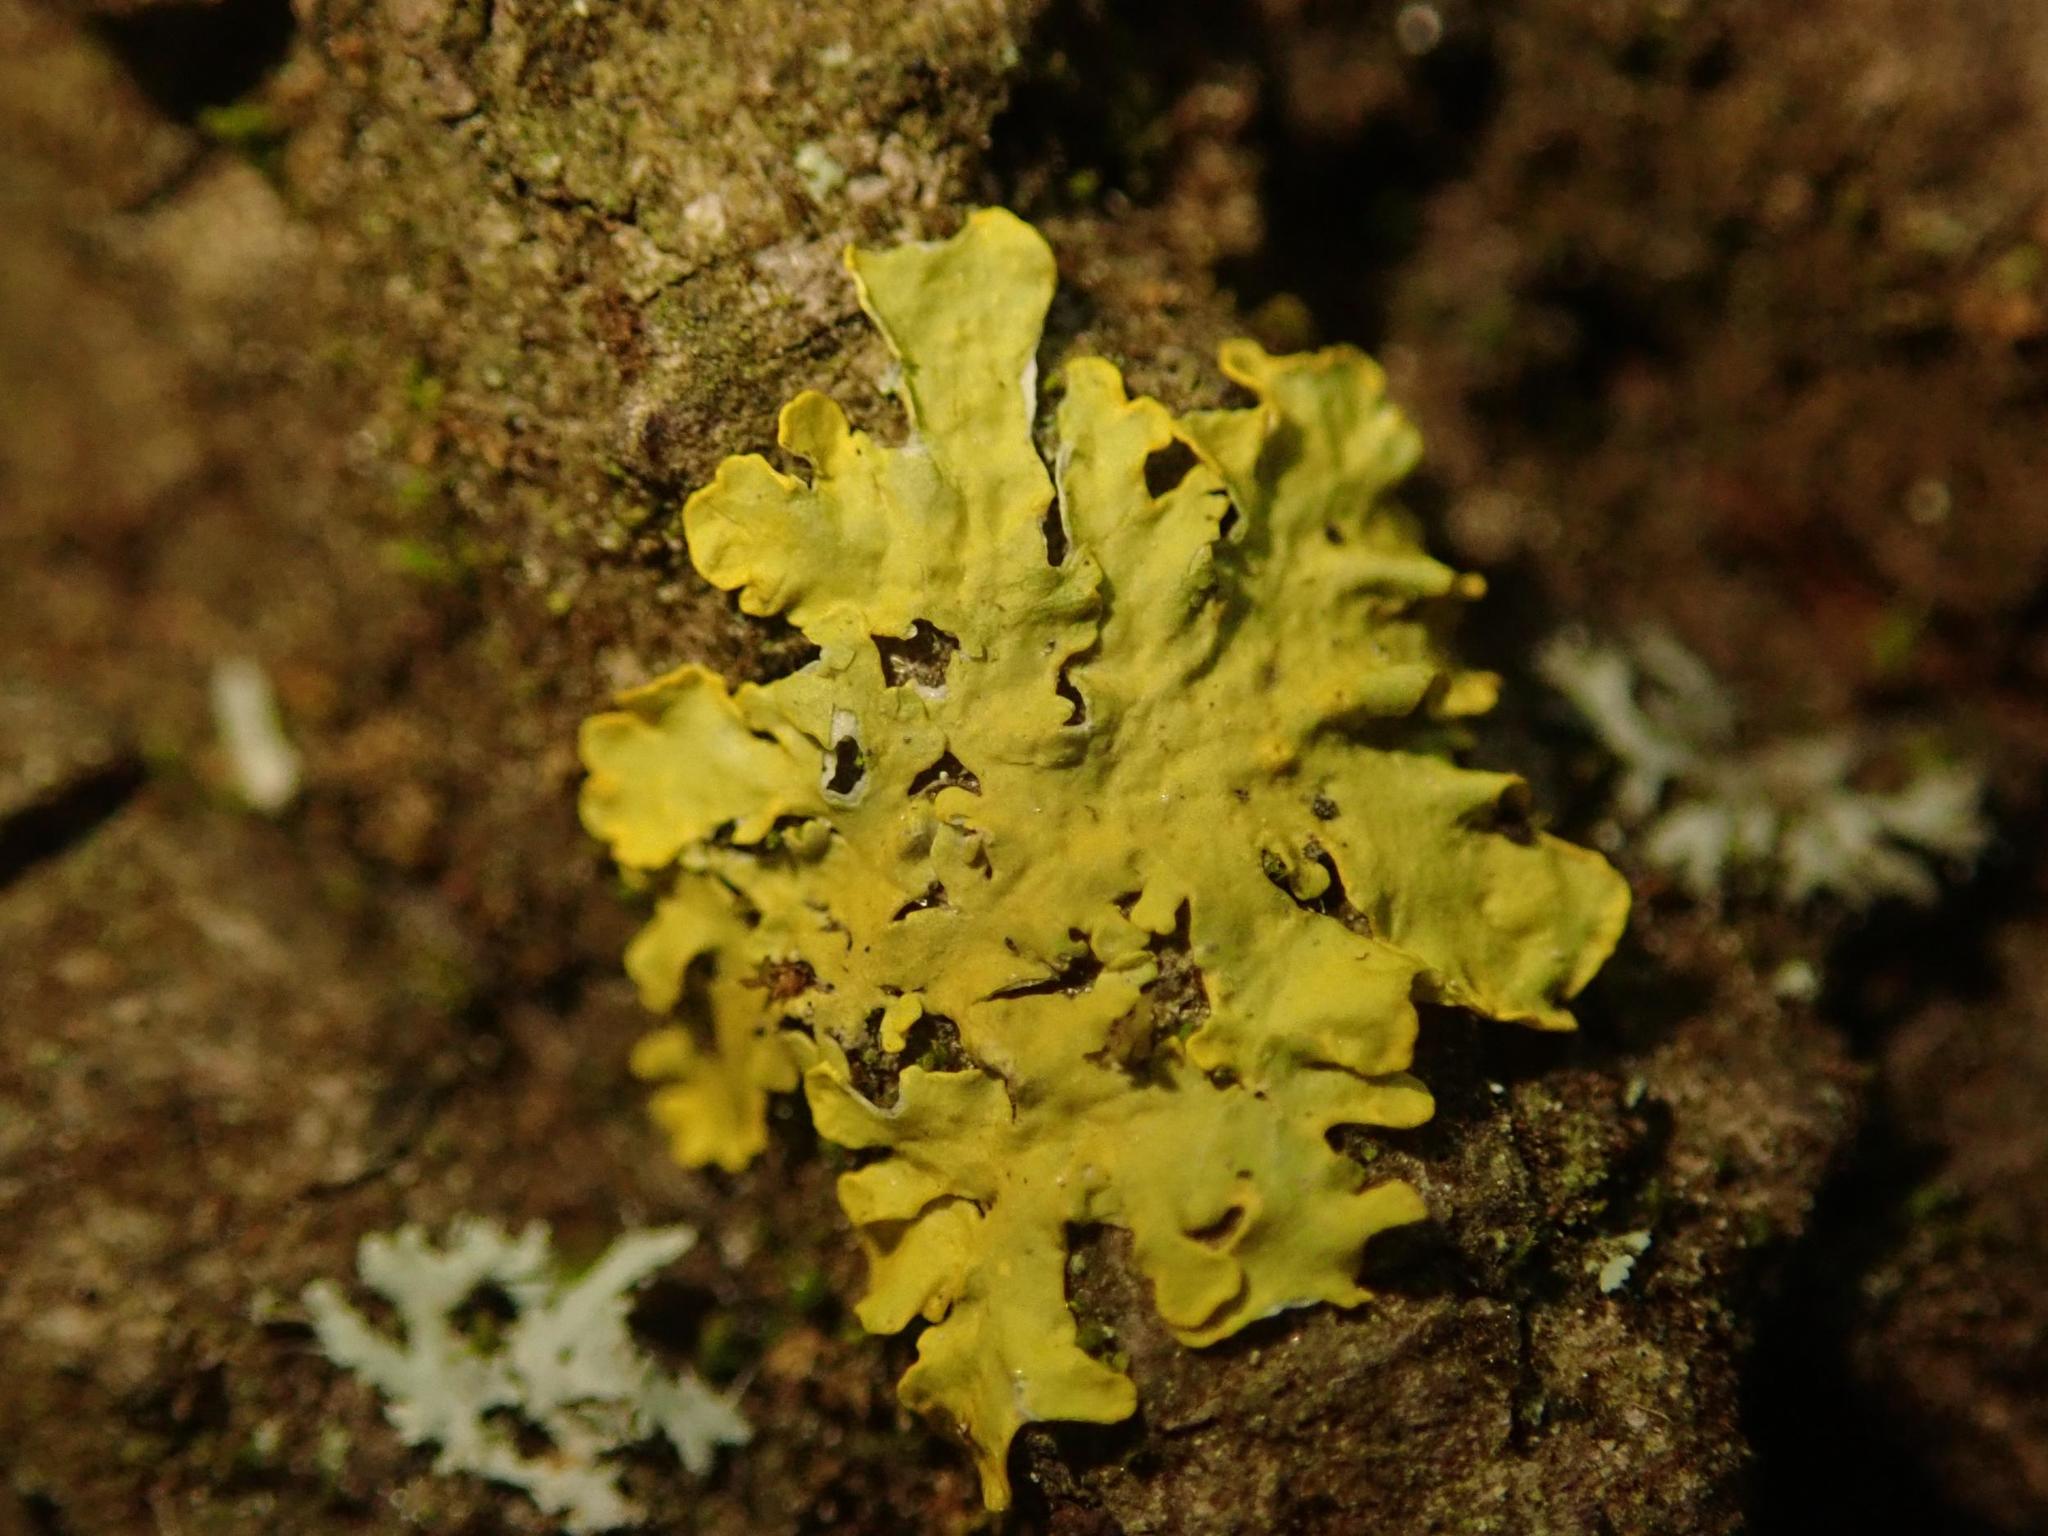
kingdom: Fungi
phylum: Ascomycota
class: Lecanoromycetes
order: Teloschistales
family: Teloschistaceae
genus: Xanthoria
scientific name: Xanthoria parietina
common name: Common orange lichen
